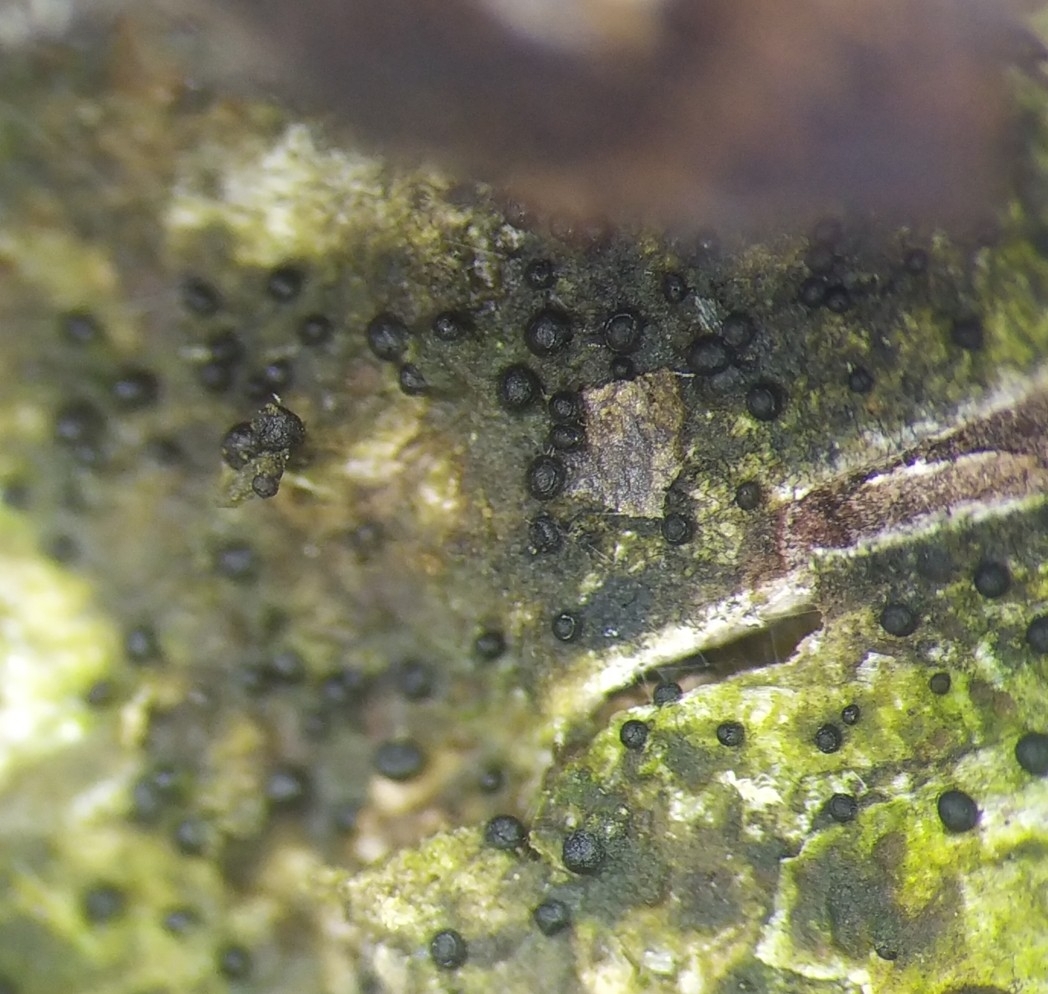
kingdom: Protozoa
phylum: Mycetozoa
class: Myxomycetes
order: Cribrariales
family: Liceaceae
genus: Licea
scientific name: Licea parasitica
